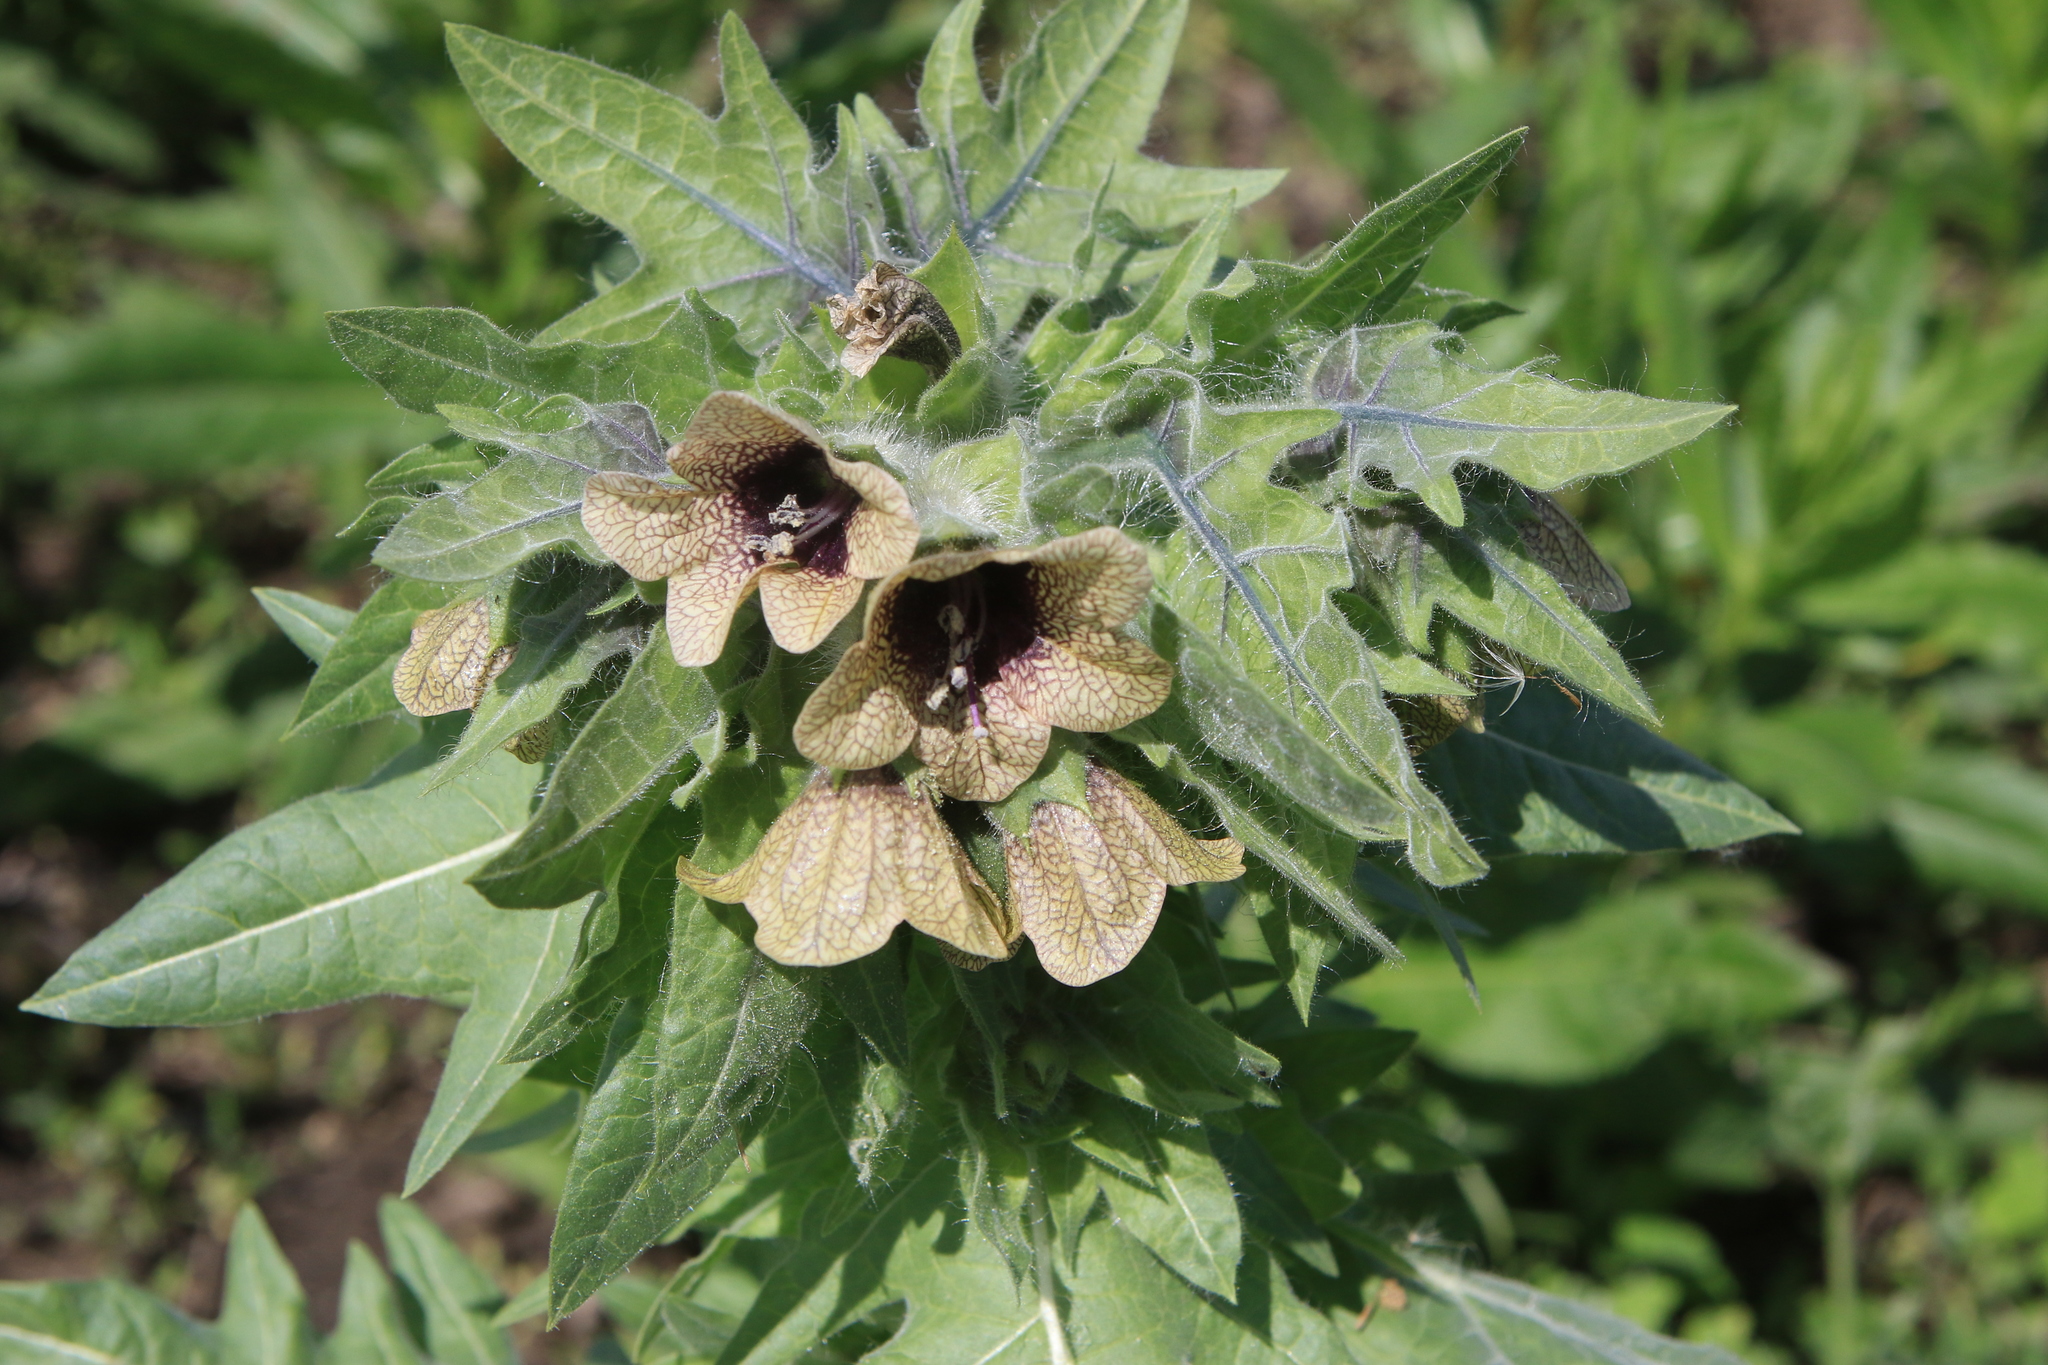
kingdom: Plantae
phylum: Tracheophyta
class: Magnoliopsida
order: Solanales
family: Solanaceae
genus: Hyoscyamus
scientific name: Hyoscyamus niger
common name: Henbane
